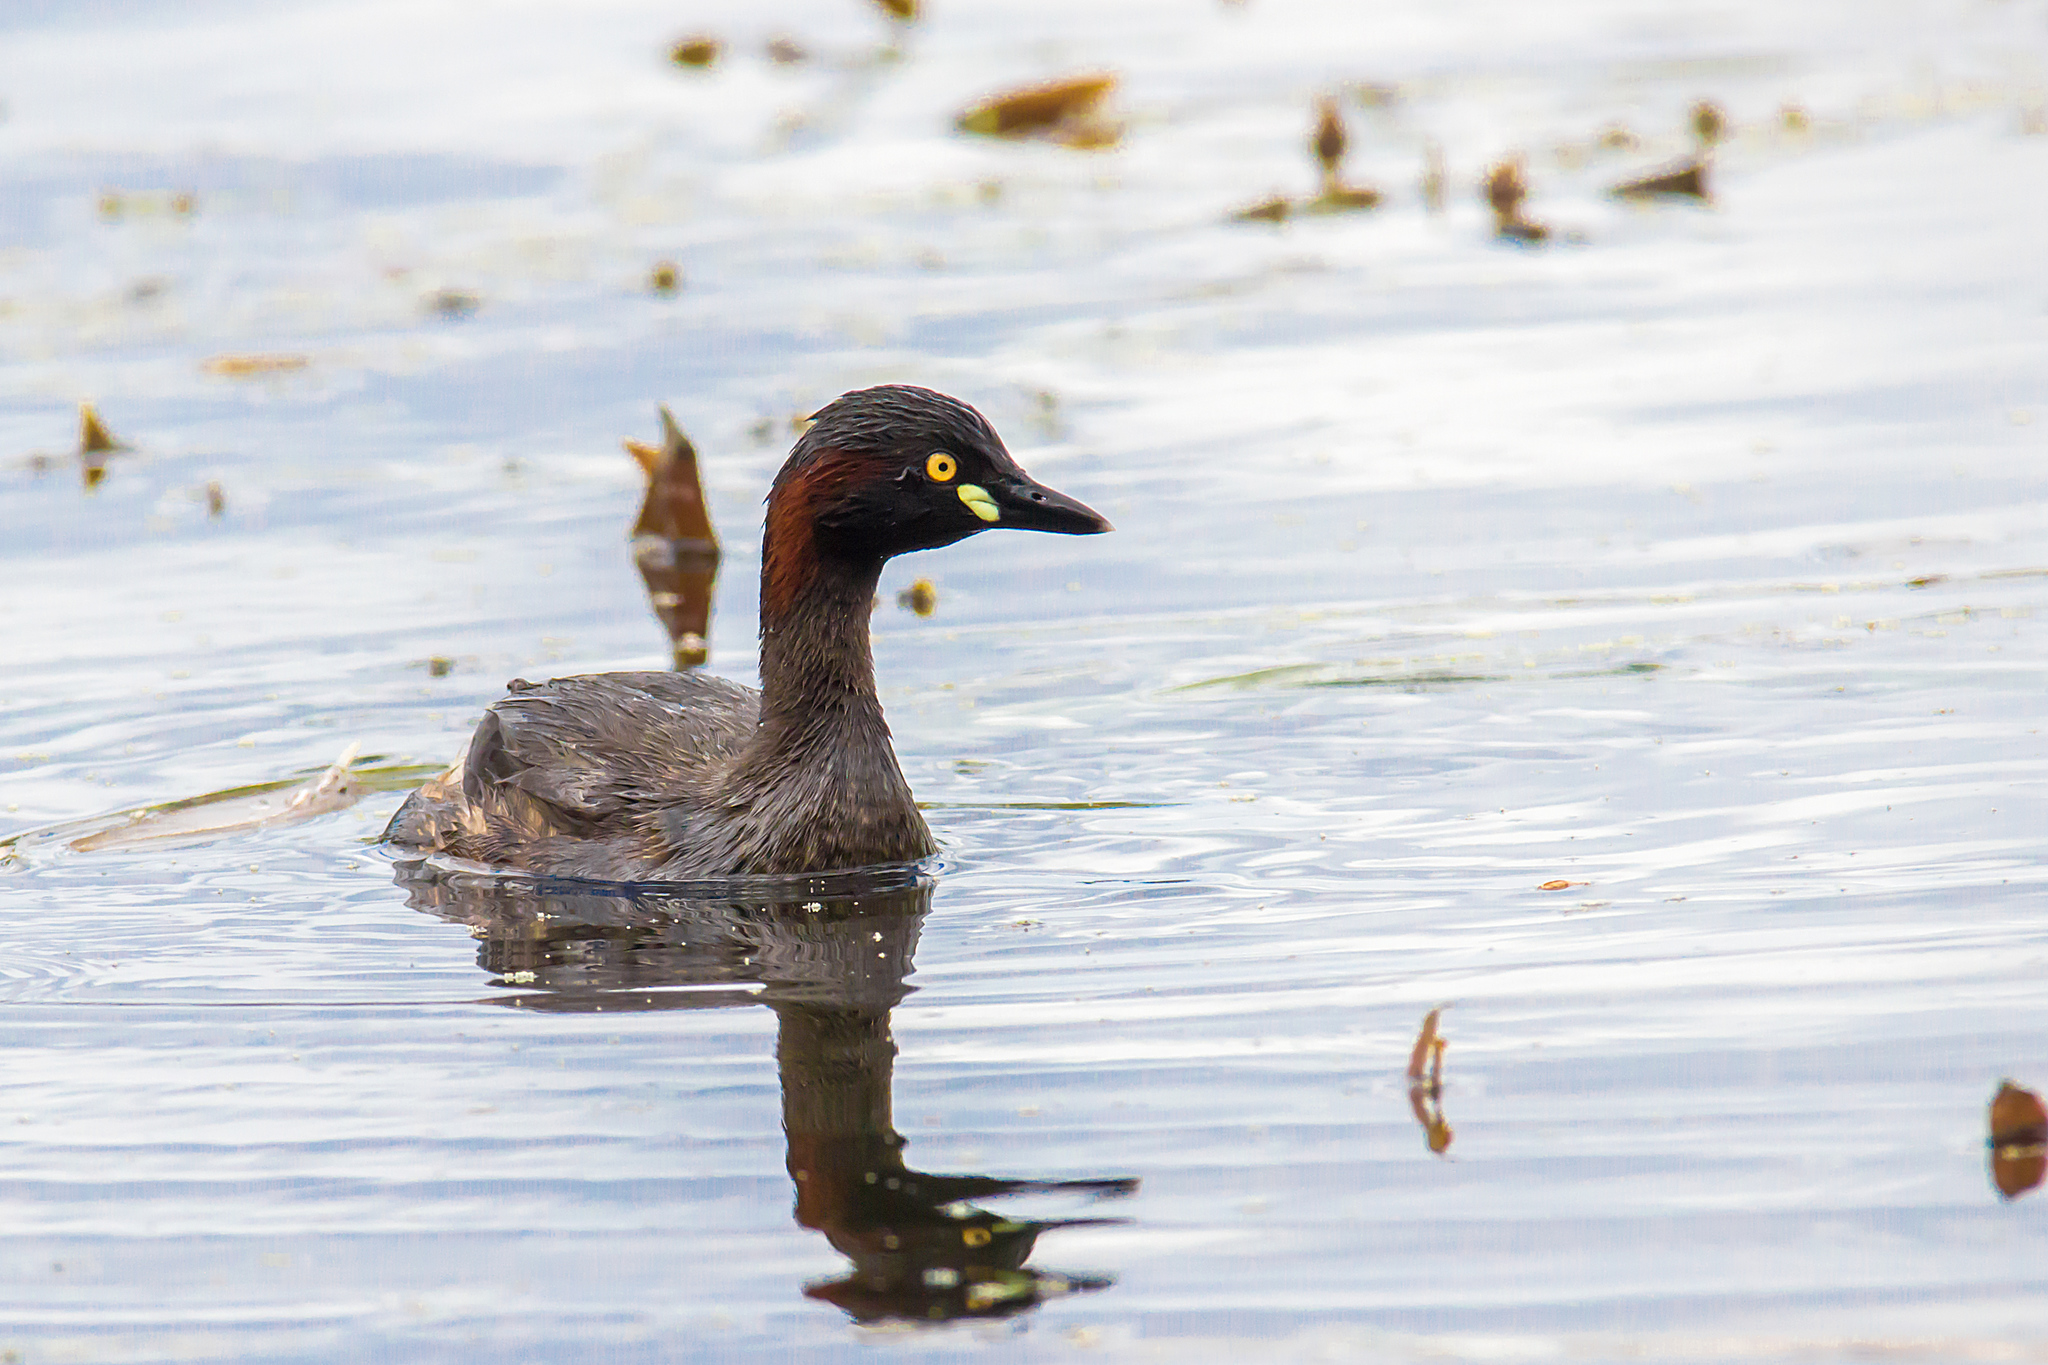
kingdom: Animalia
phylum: Chordata
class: Aves
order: Podicipediformes
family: Podicipedidae
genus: Tachybaptus
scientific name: Tachybaptus novaehollandiae
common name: Australasian grebe
